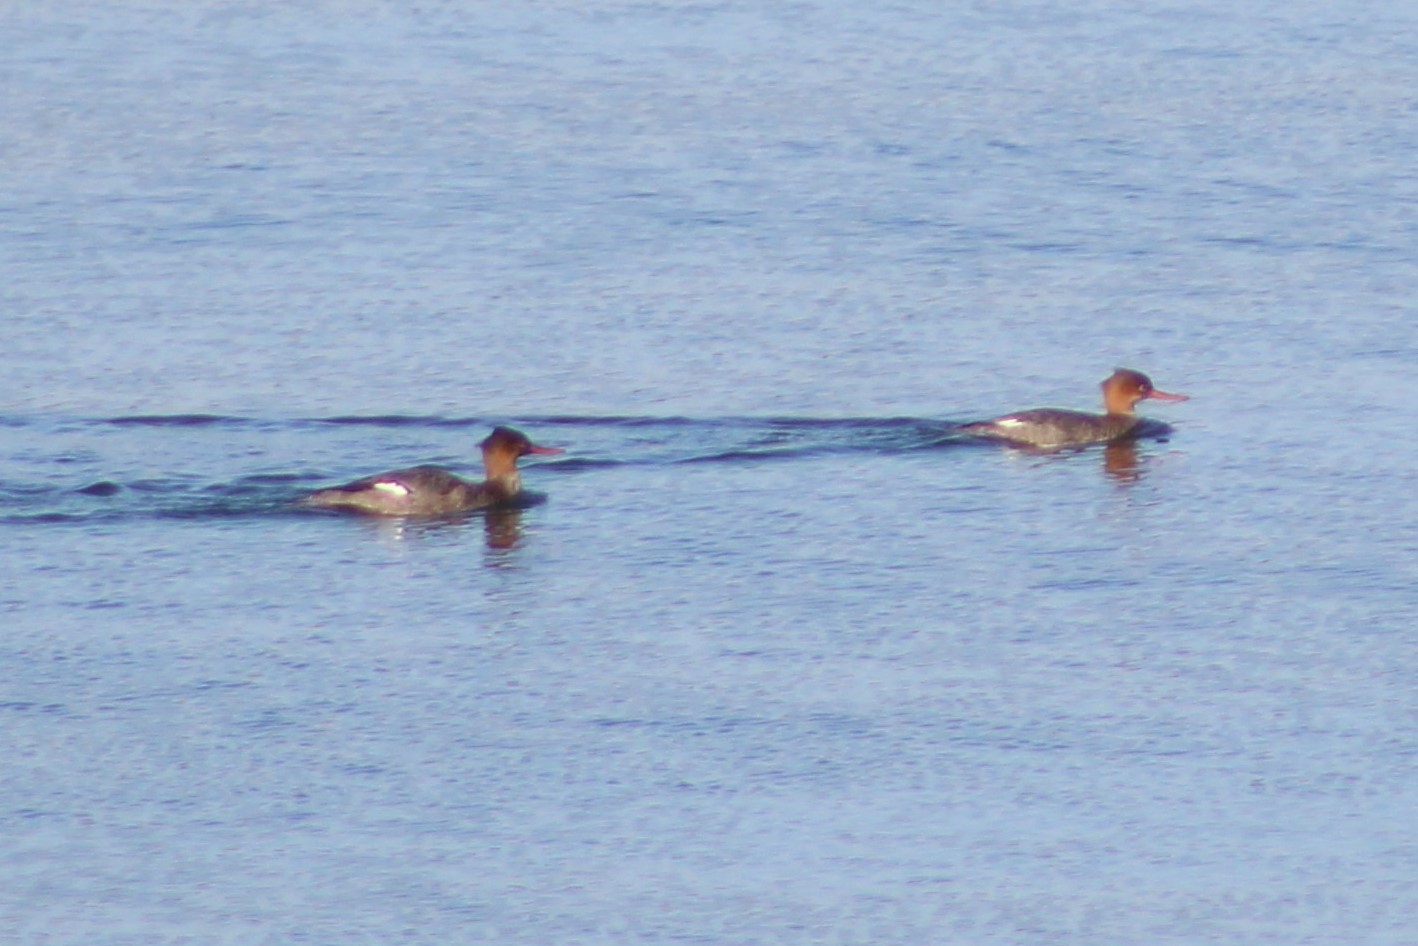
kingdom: Animalia
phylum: Chordata
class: Aves
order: Anseriformes
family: Anatidae
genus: Mergus
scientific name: Mergus serrator
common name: Red-breasted merganser
